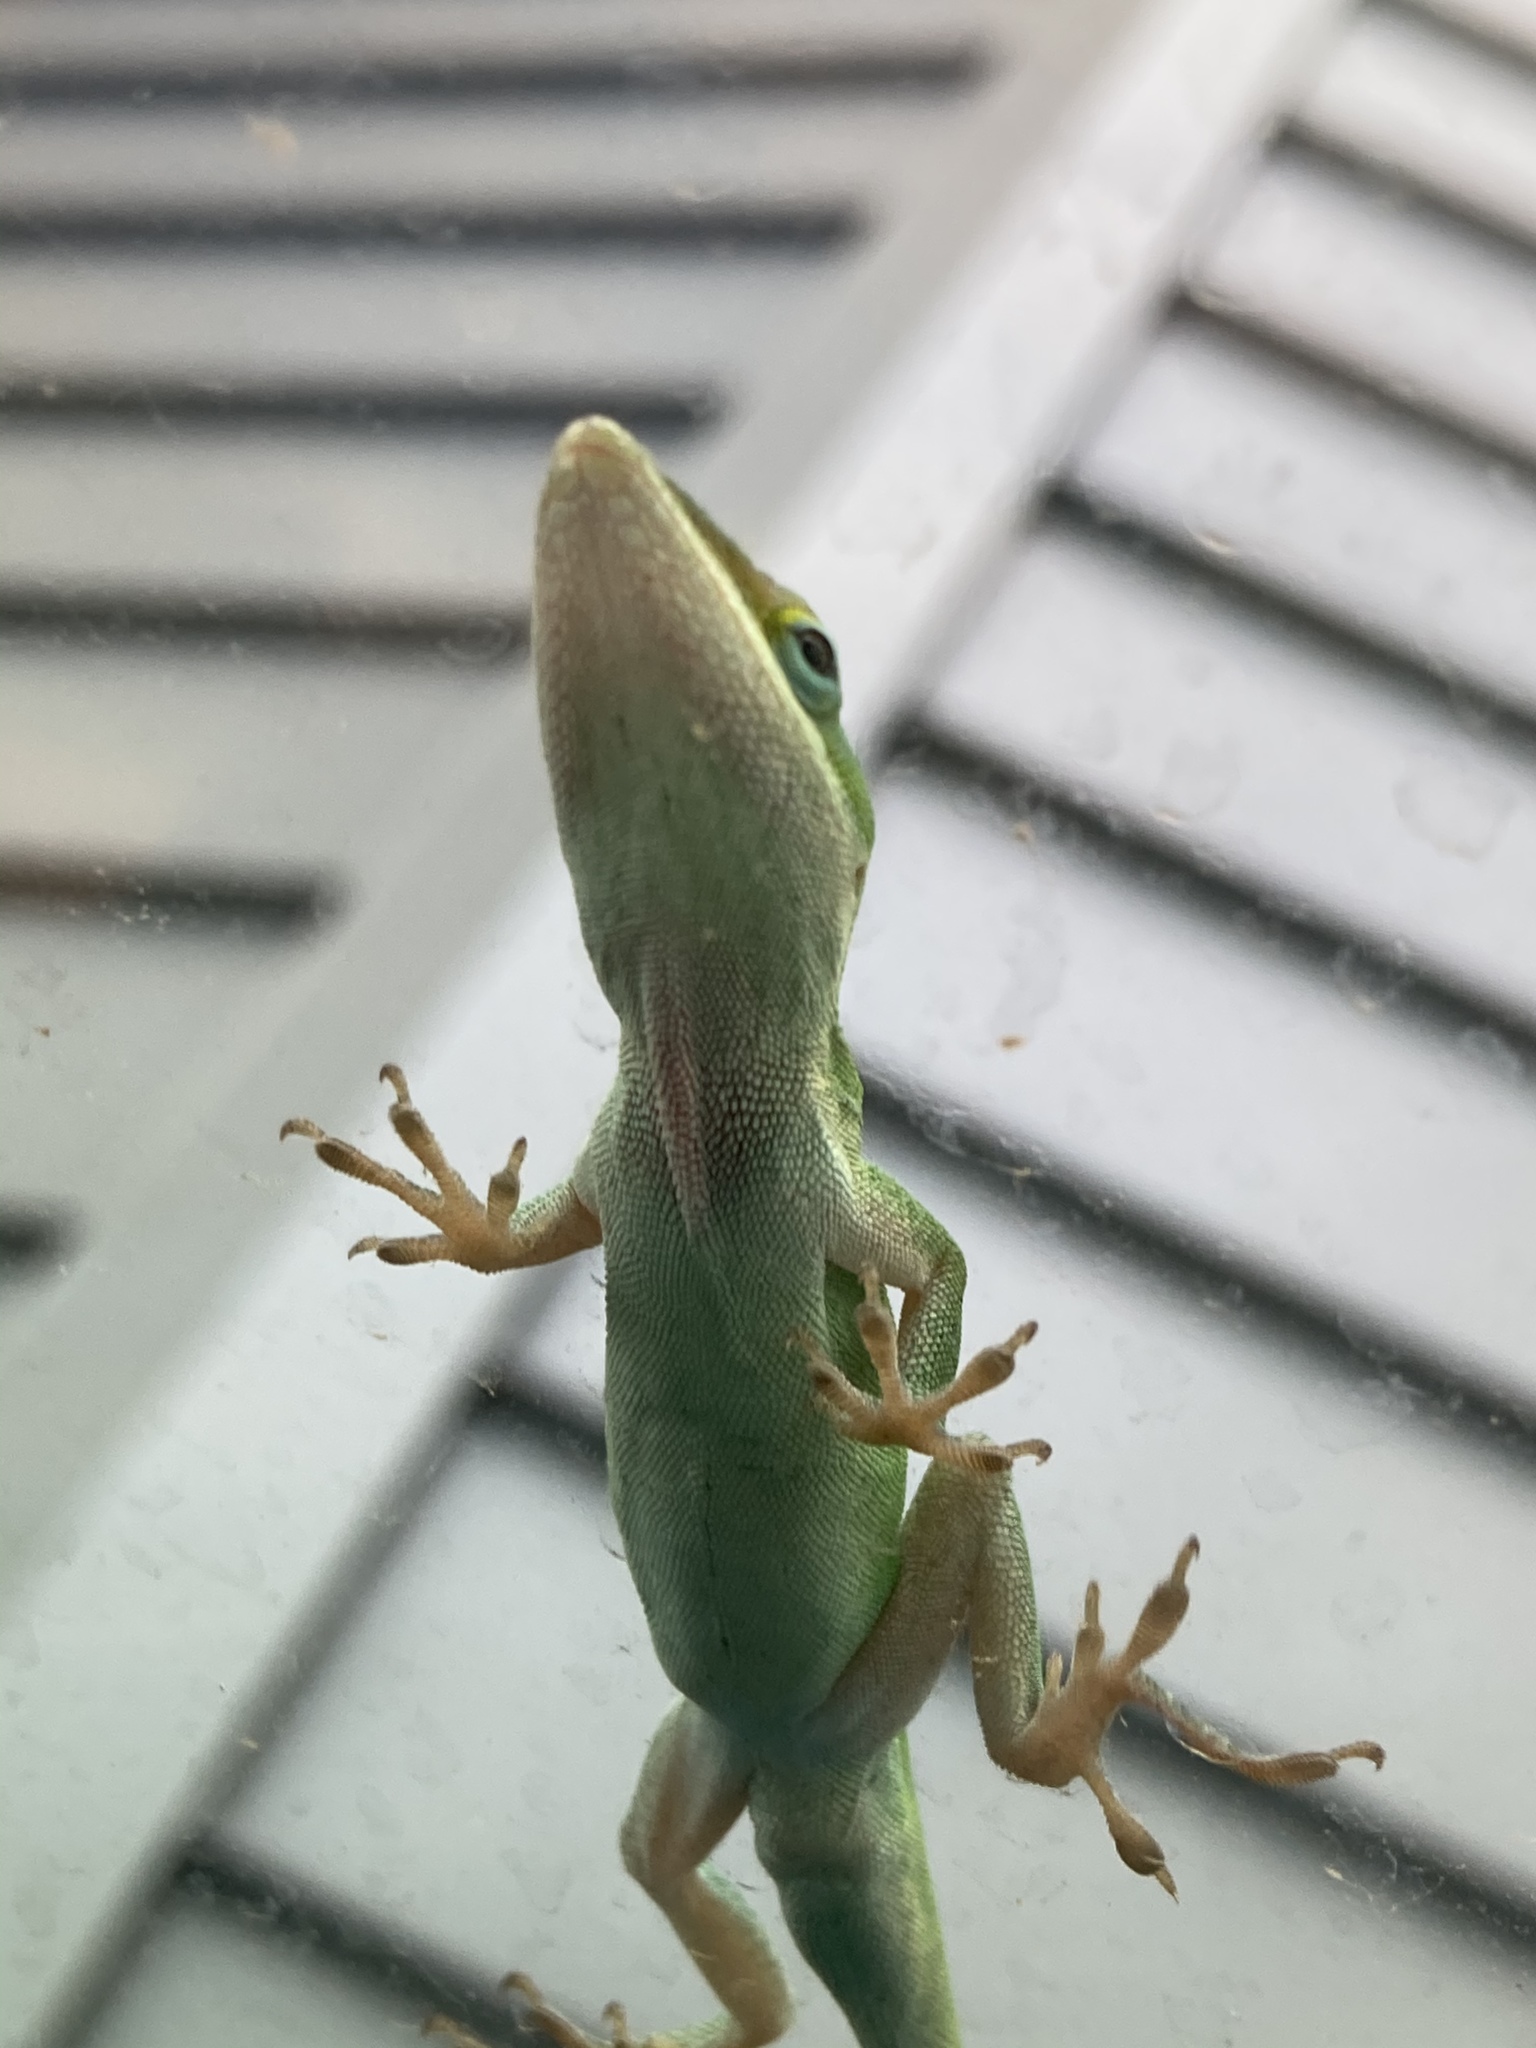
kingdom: Animalia
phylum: Chordata
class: Squamata
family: Dactyloidae
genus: Anolis
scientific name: Anolis carolinensis
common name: Green anole
